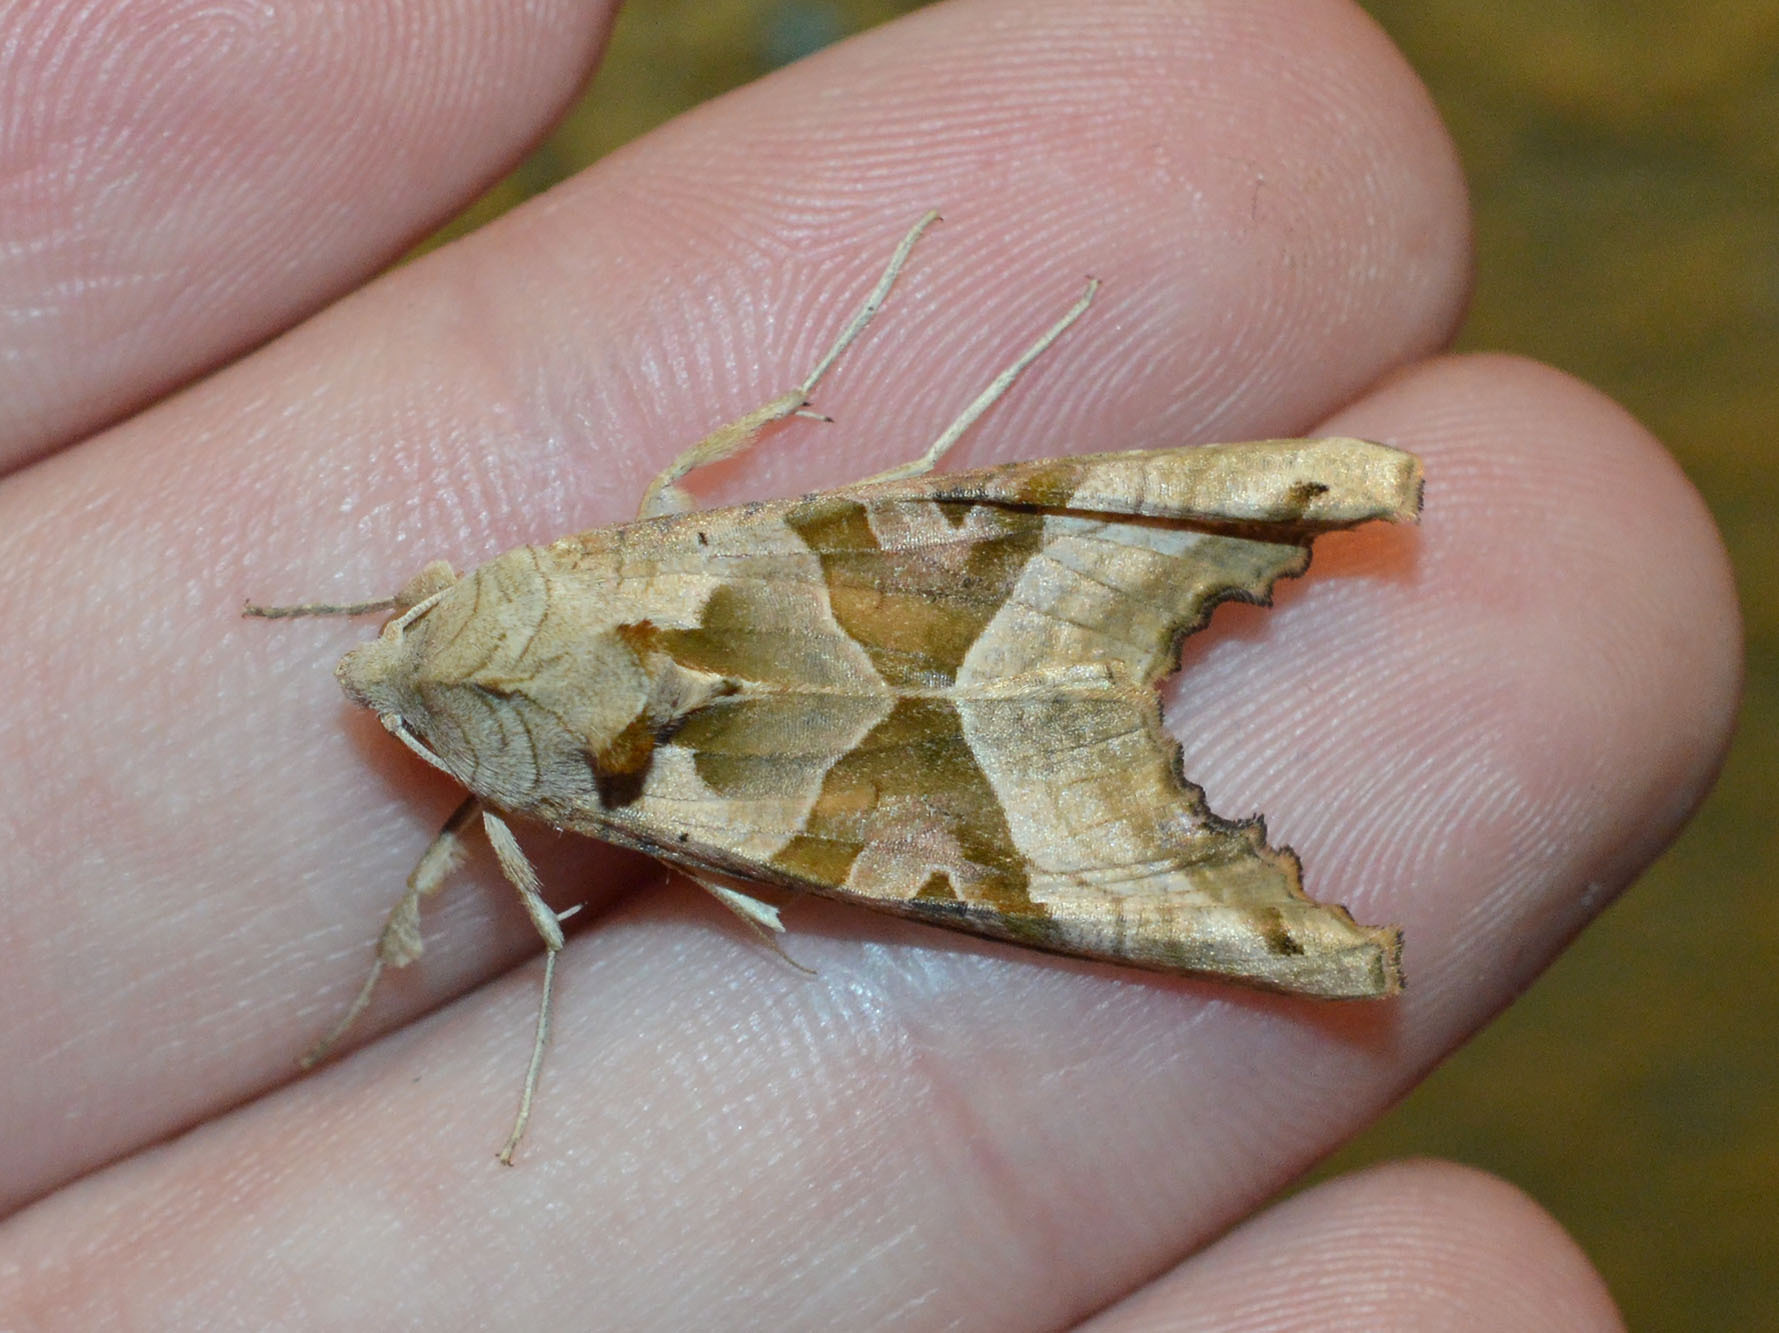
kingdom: Animalia
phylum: Arthropoda
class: Insecta
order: Lepidoptera
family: Noctuidae
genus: Phlogophora
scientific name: Phlogophora meticulosa
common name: Angle shades
